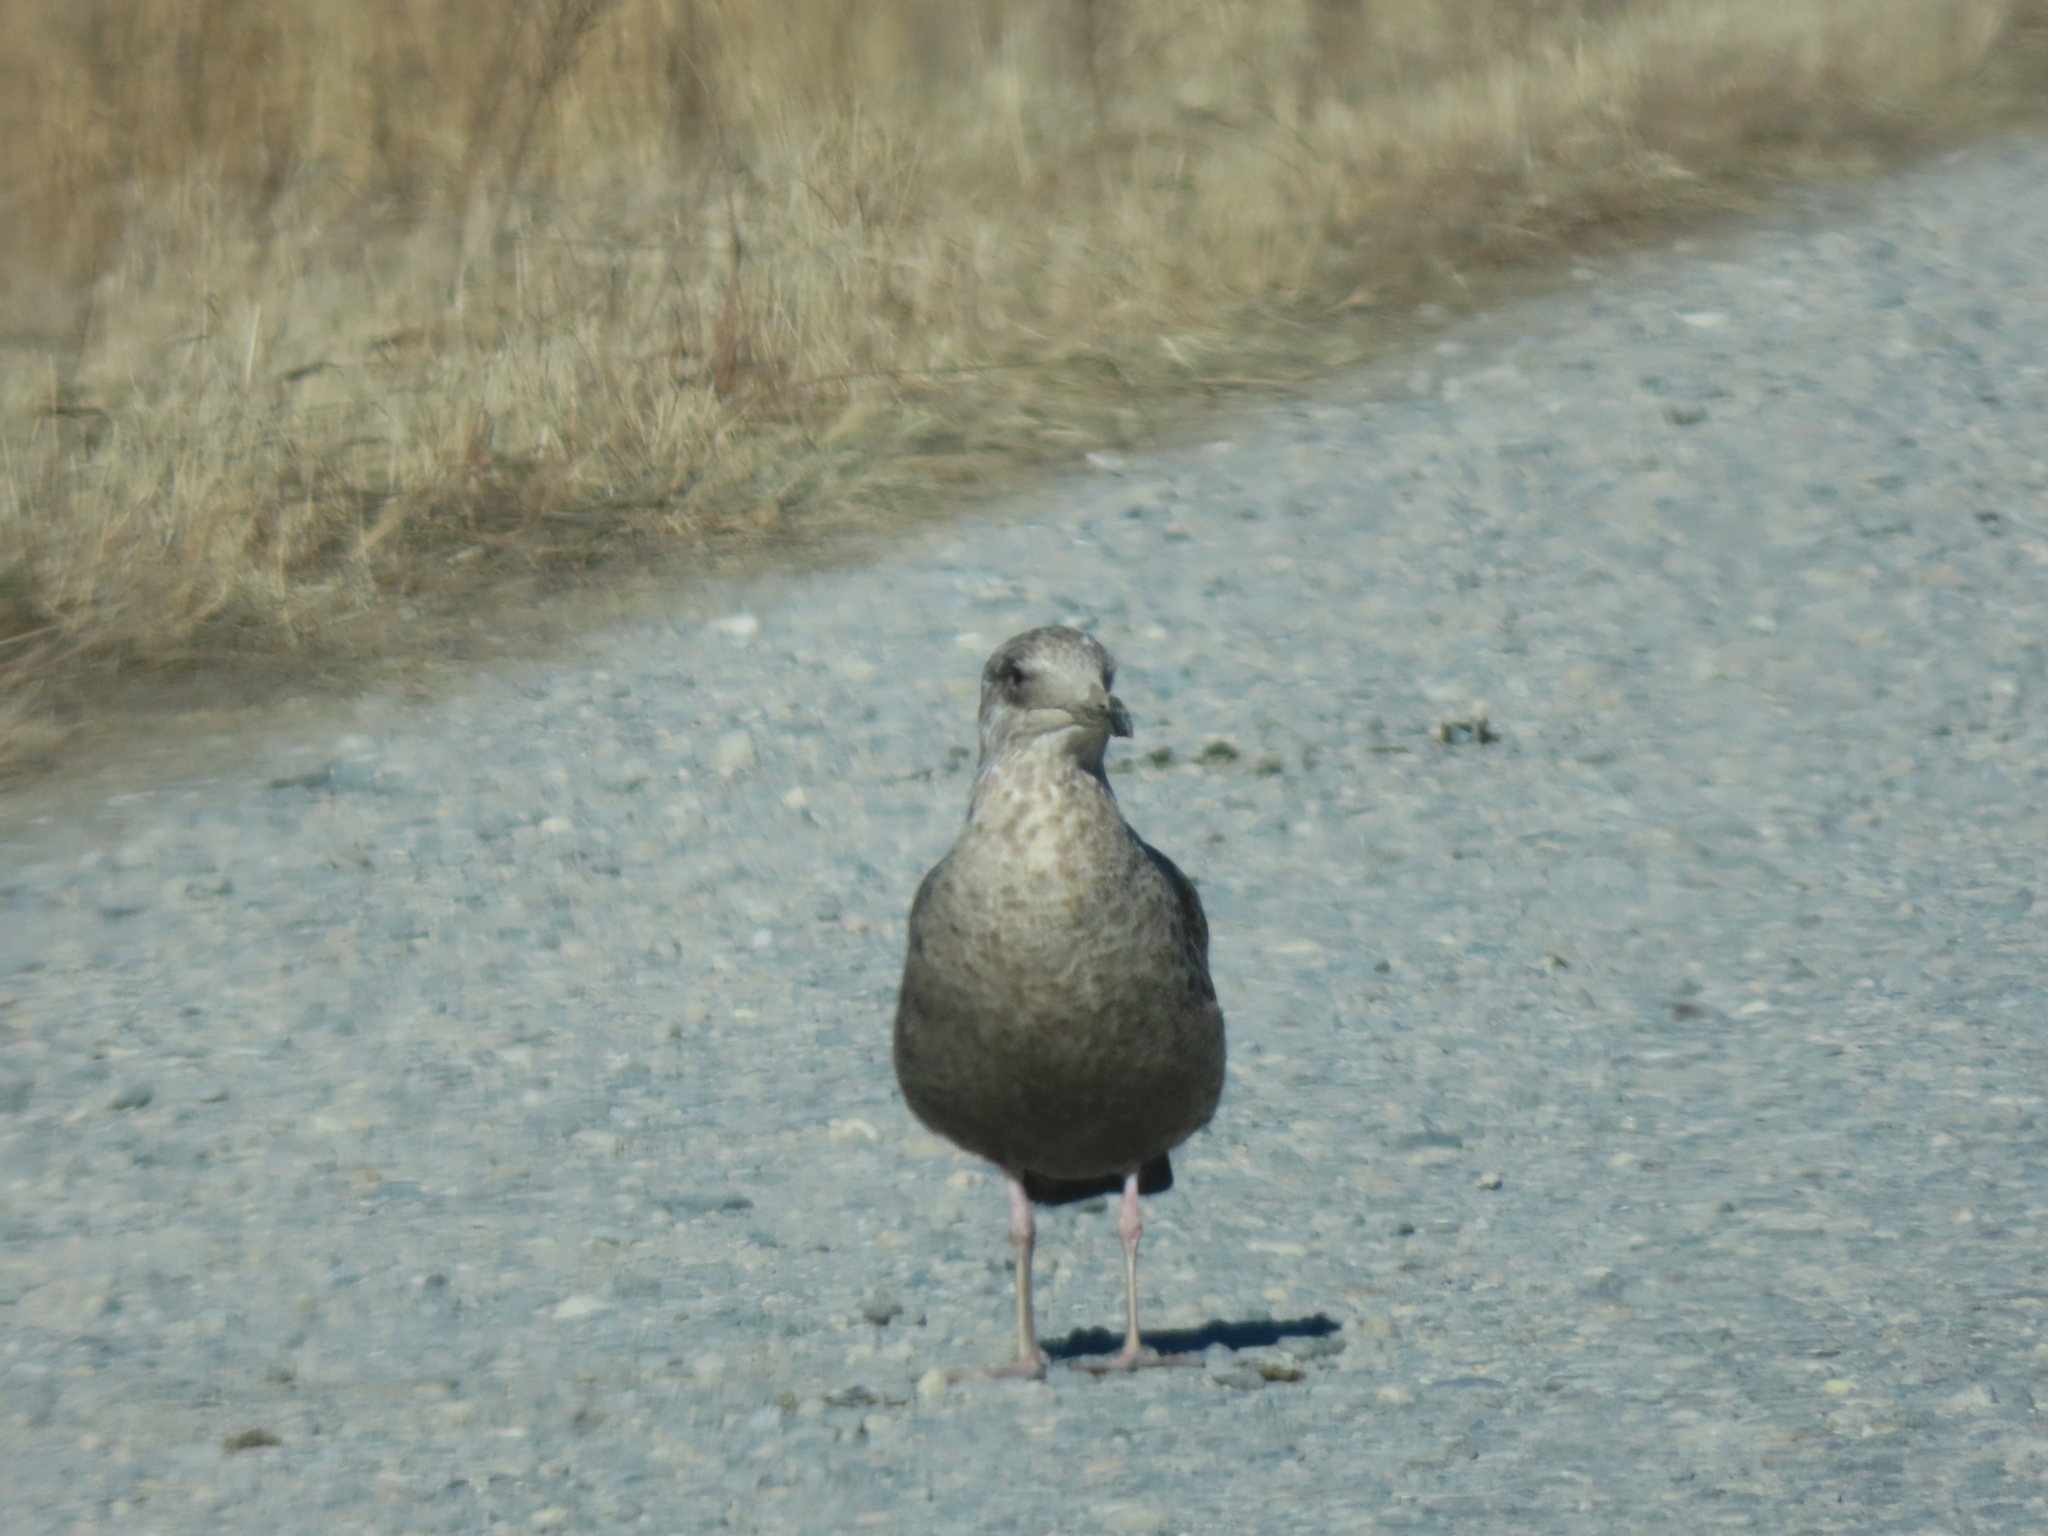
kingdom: Animalia
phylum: Chordata
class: Aves
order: Charadriiformes
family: Laridae
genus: Larus
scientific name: Larus smithsonianus
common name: American herring gull
